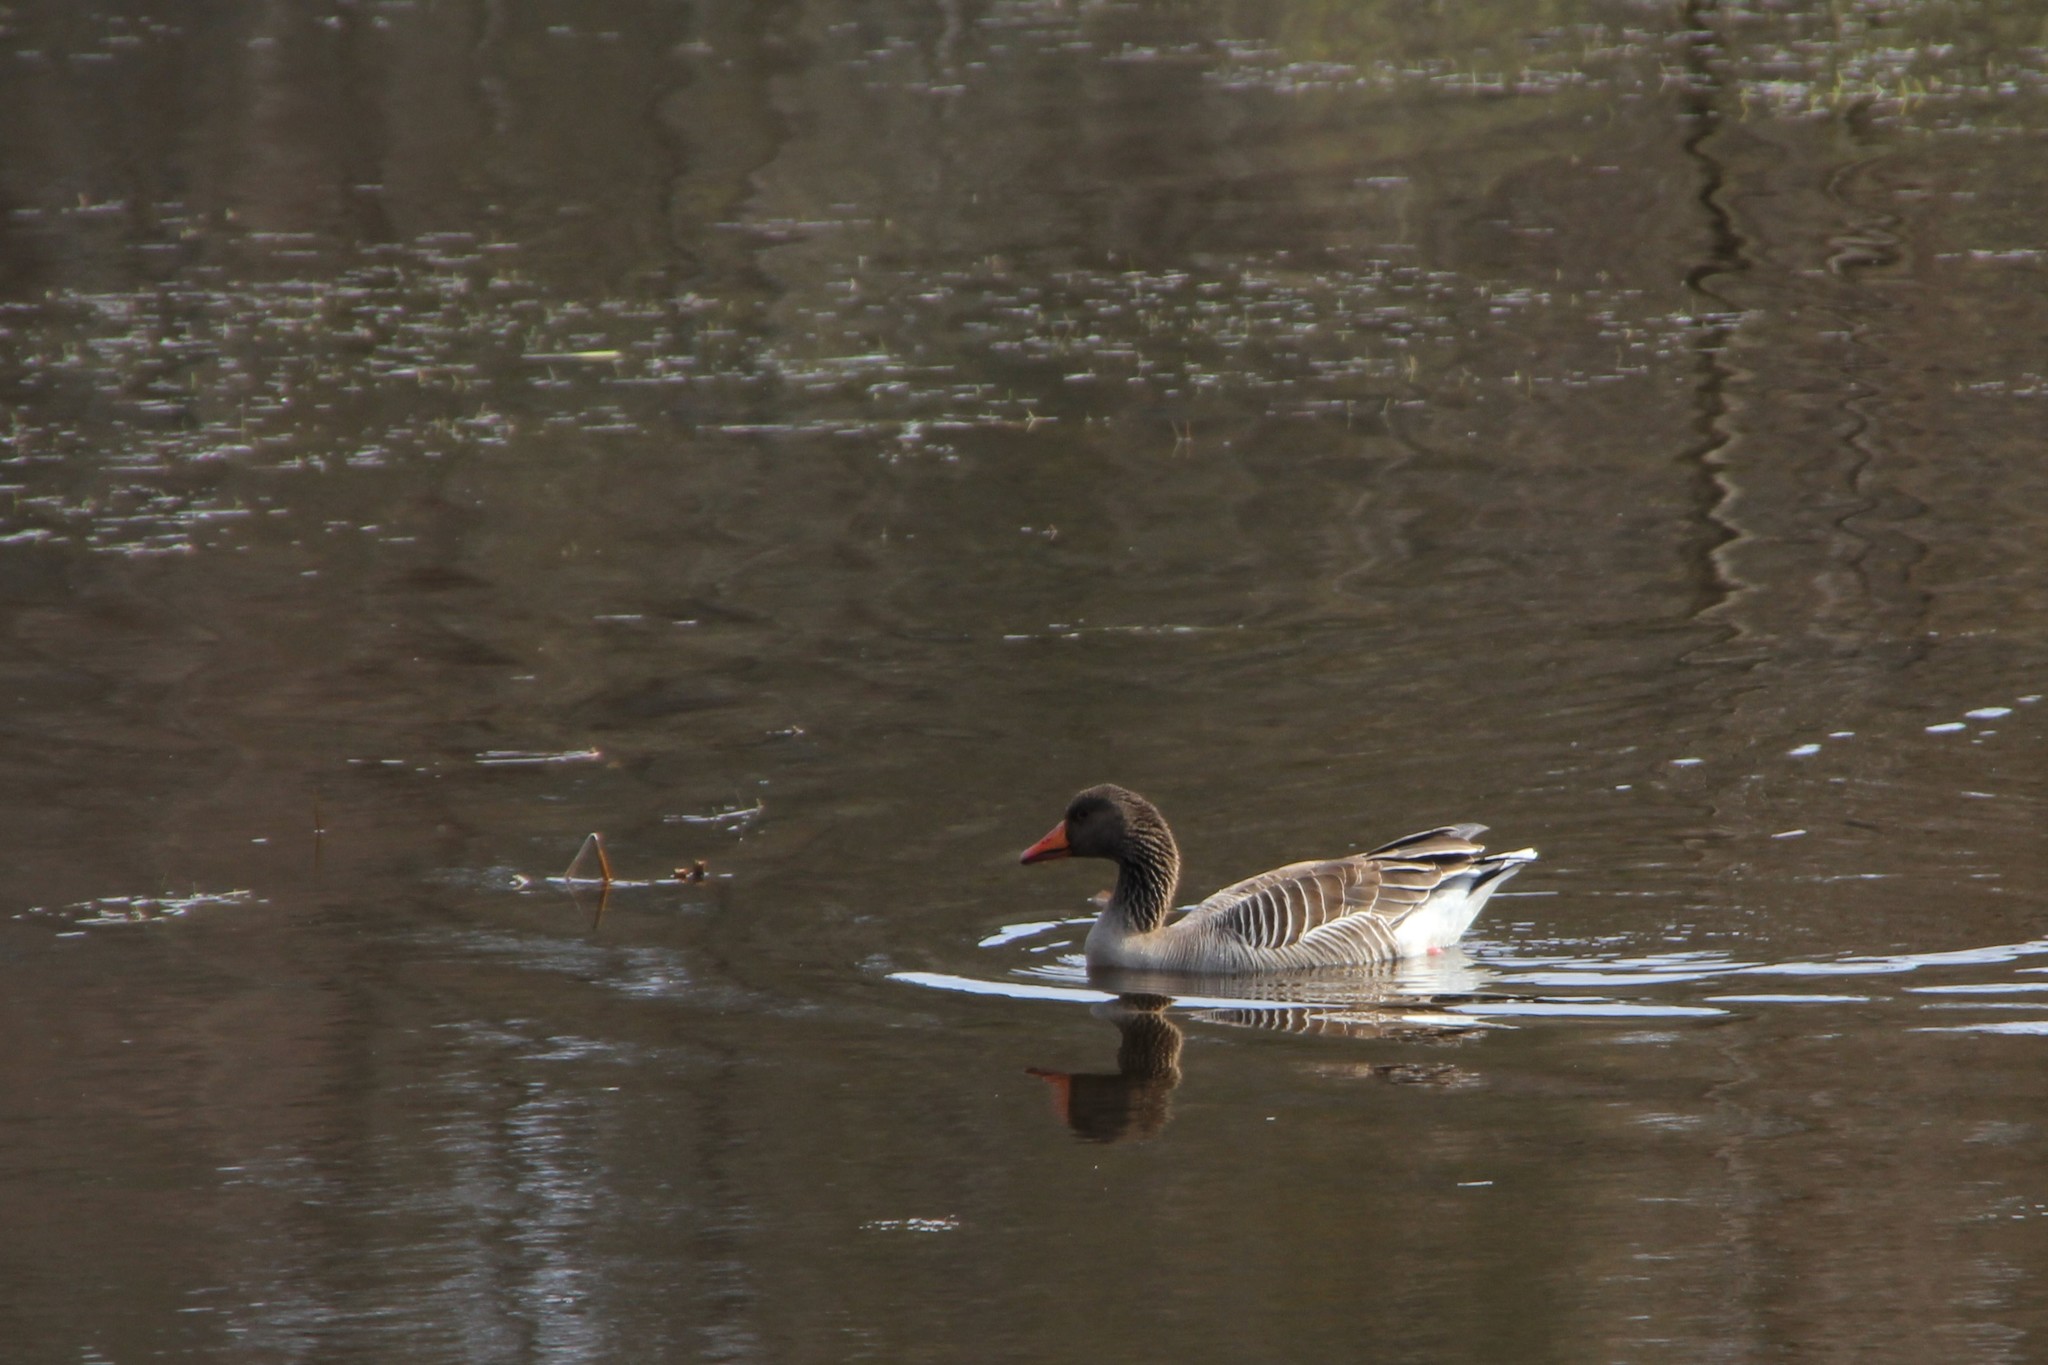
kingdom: Animalia
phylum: Chordata
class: Aves
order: Anseriformes
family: Anatidae
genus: Anser
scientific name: Anser anser
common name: Greylag goose
